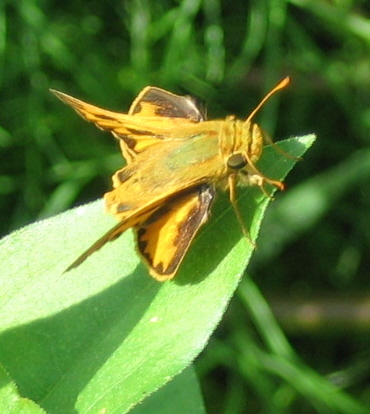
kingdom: Animalia
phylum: Arthropoda
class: Insecta
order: Lepidoptera
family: Hesperiidae
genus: Hylephila
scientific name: Hylephila phyleus
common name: Fiery skipper
